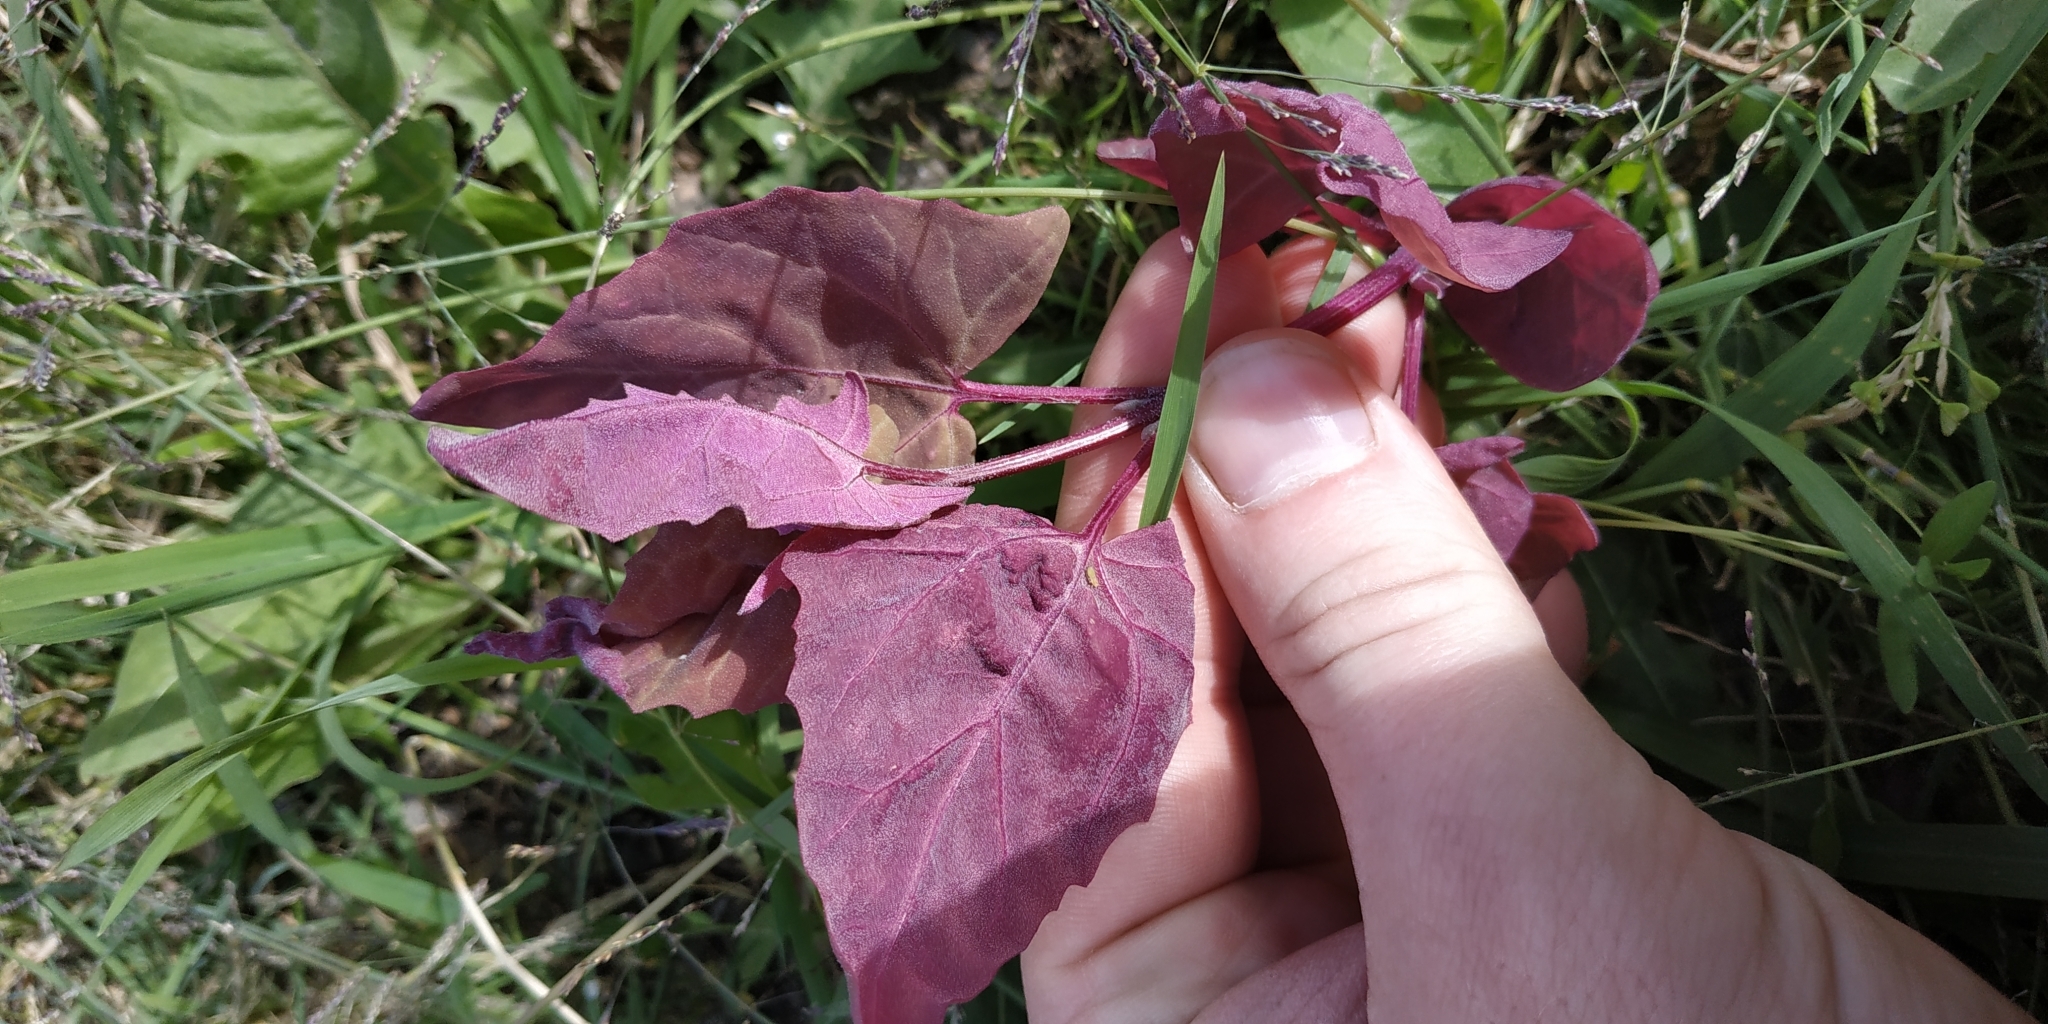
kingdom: Plantae
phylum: Tracheophyta
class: Magnoliopsida
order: Caryophyllales
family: Amaranthaceae
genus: Atriplex
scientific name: Atriplex hortensis
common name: Garden orache
